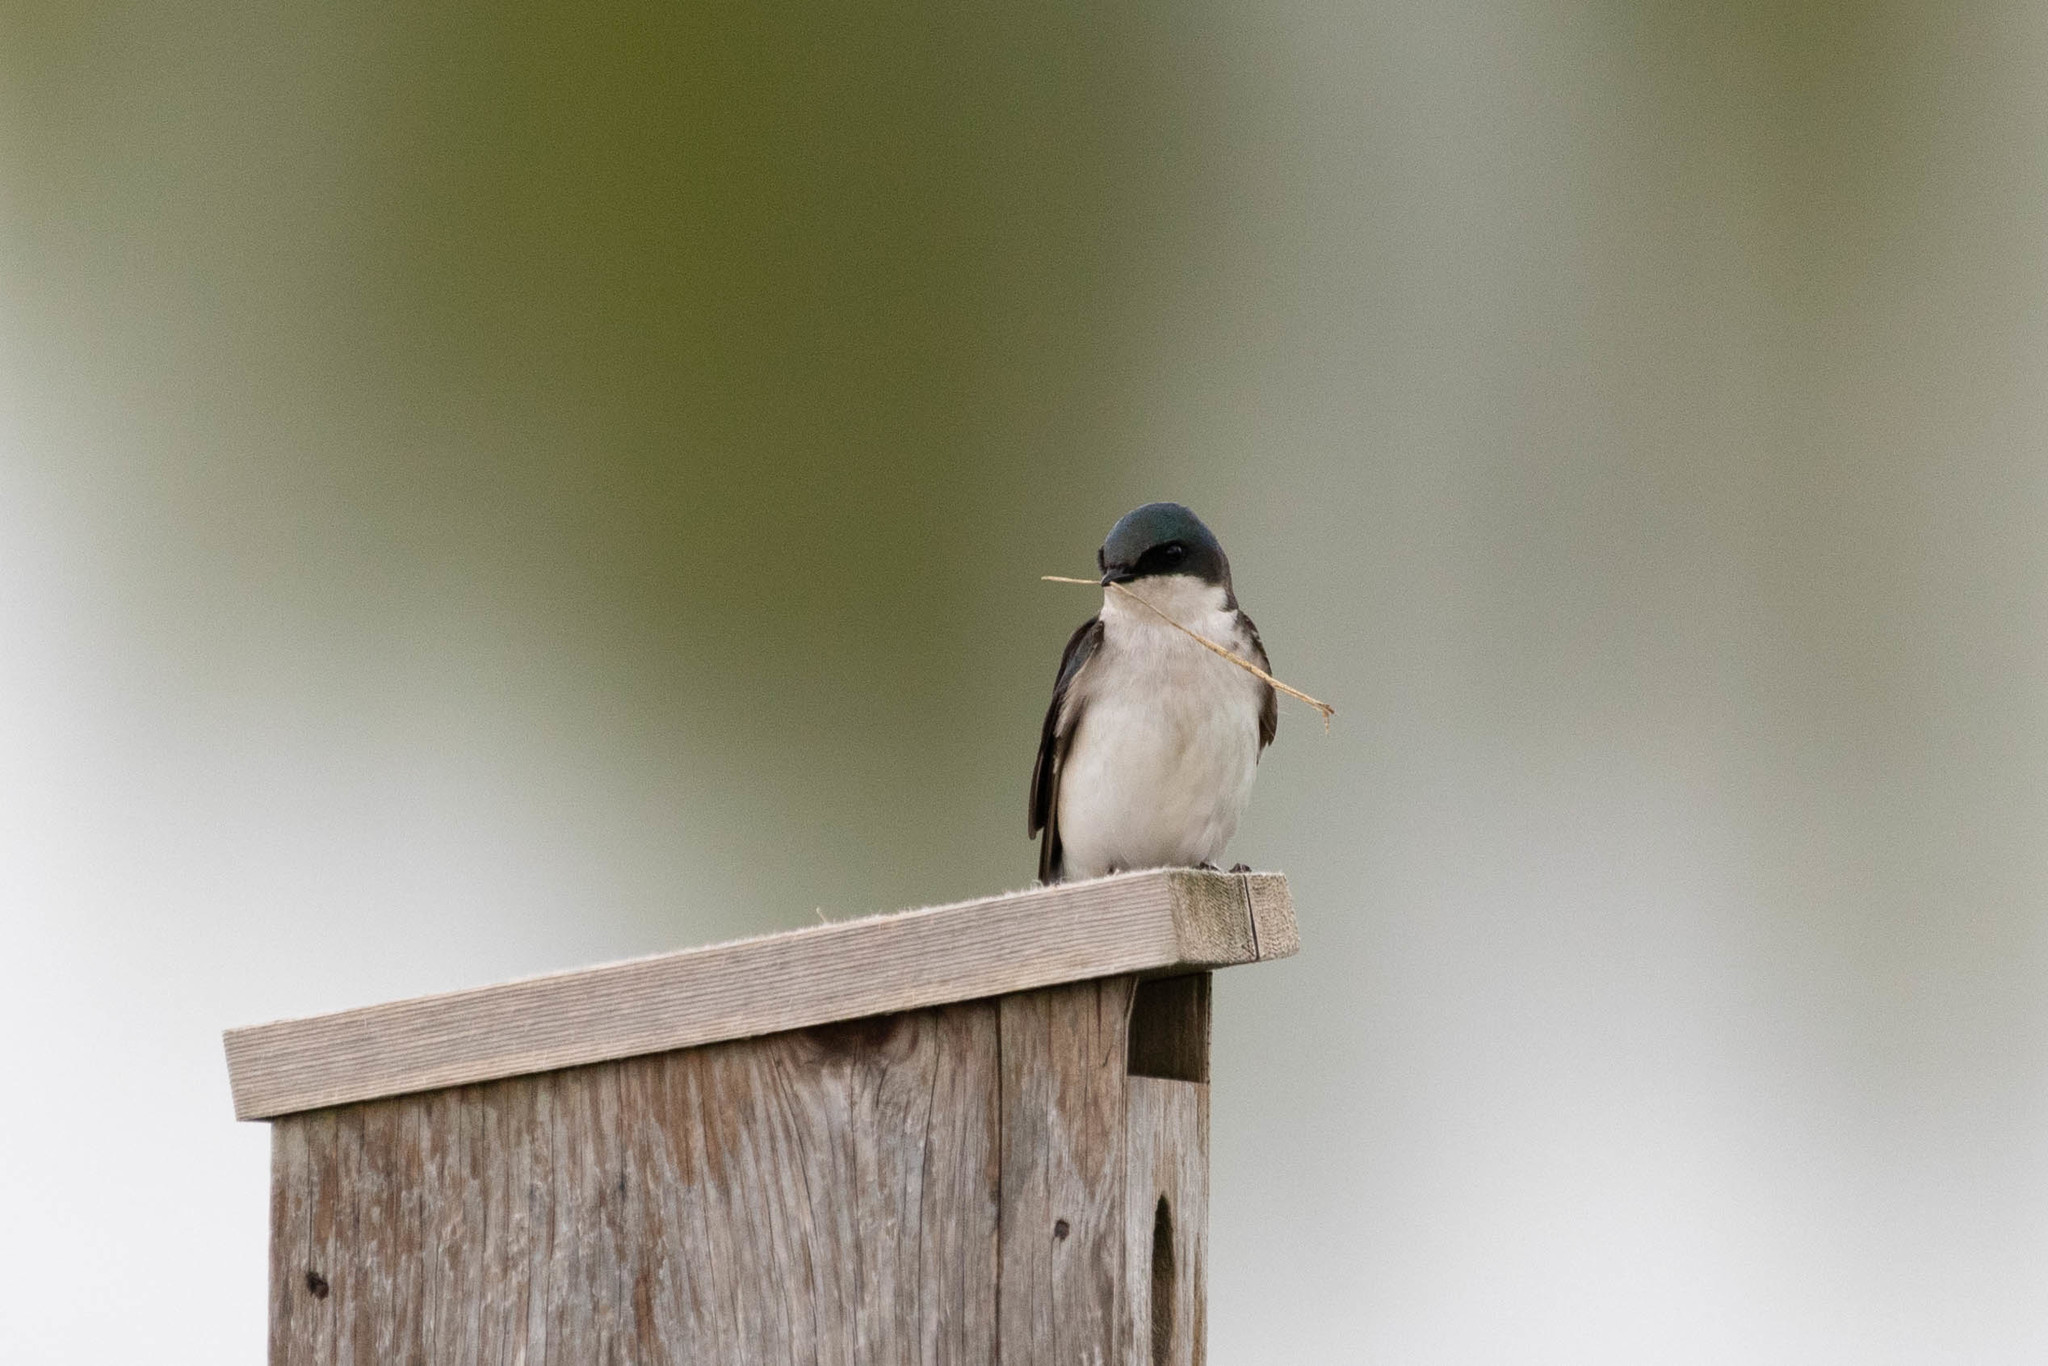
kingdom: Animalia
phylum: Chordata
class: Aves
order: Passeriformes
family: Hirundinidae
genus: Tachycineta
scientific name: Tachycineta bicolor
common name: Tree swallow
